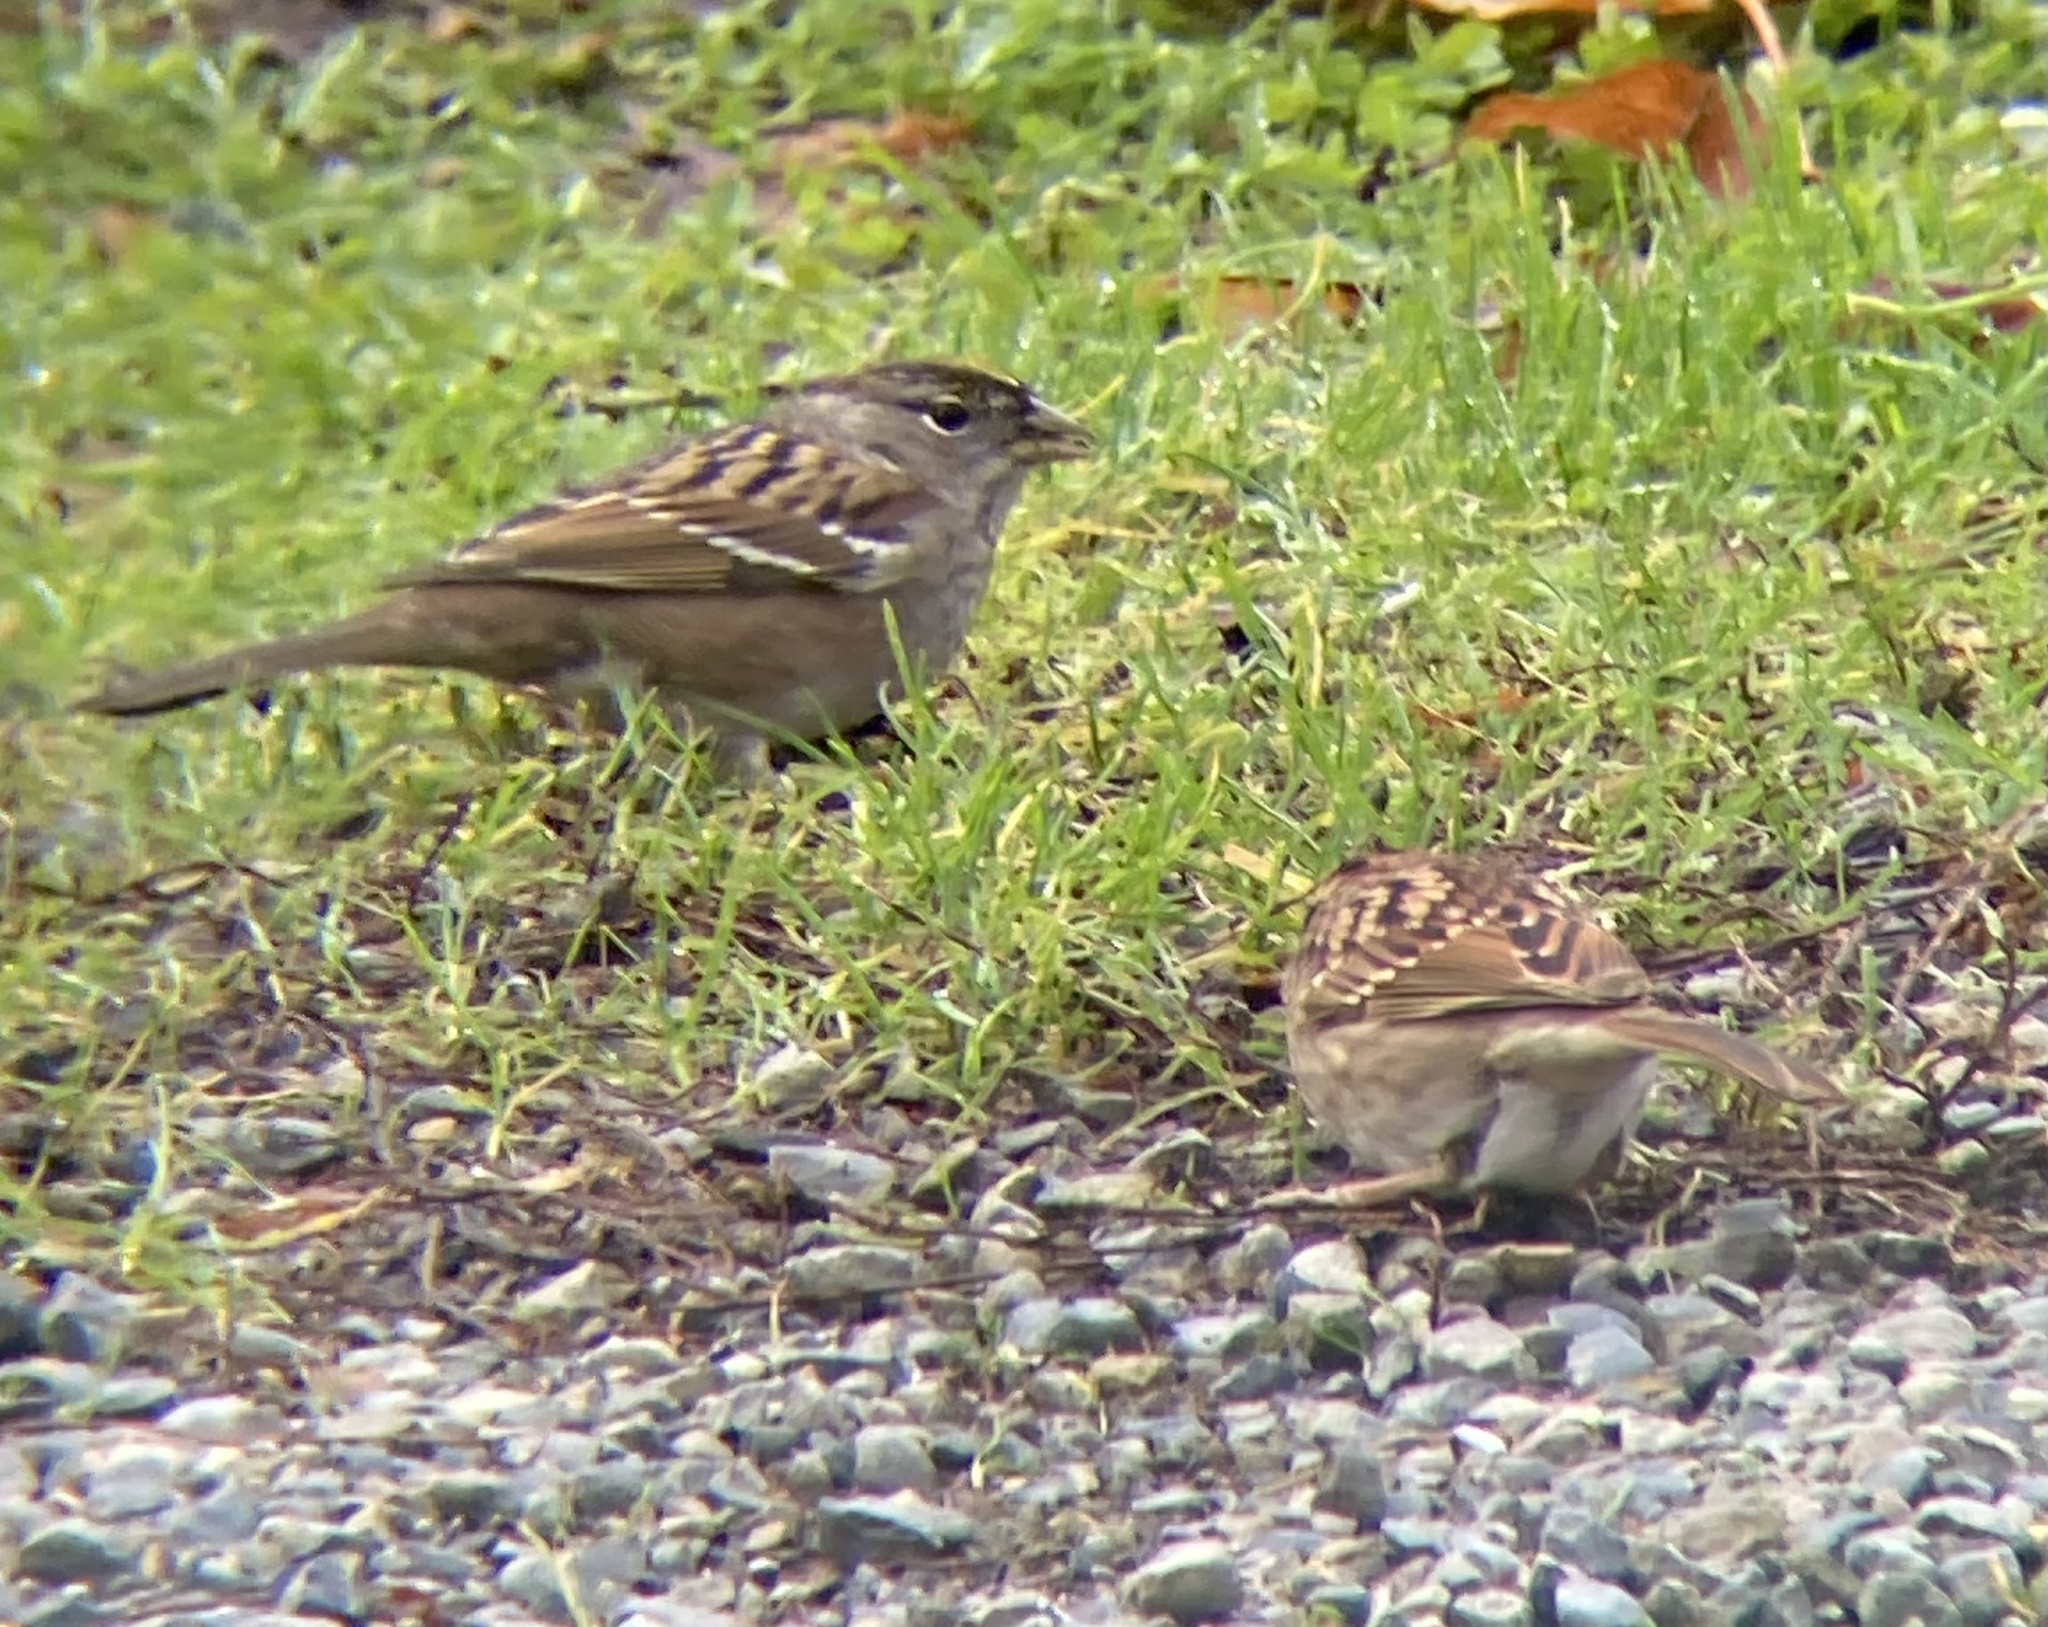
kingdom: Animalia
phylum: Chordata
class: Aves
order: Passeriformes
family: Passerellidae
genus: Zonotrichia
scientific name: Zonotrichia atricapilla
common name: Golden-crowned sparrow
